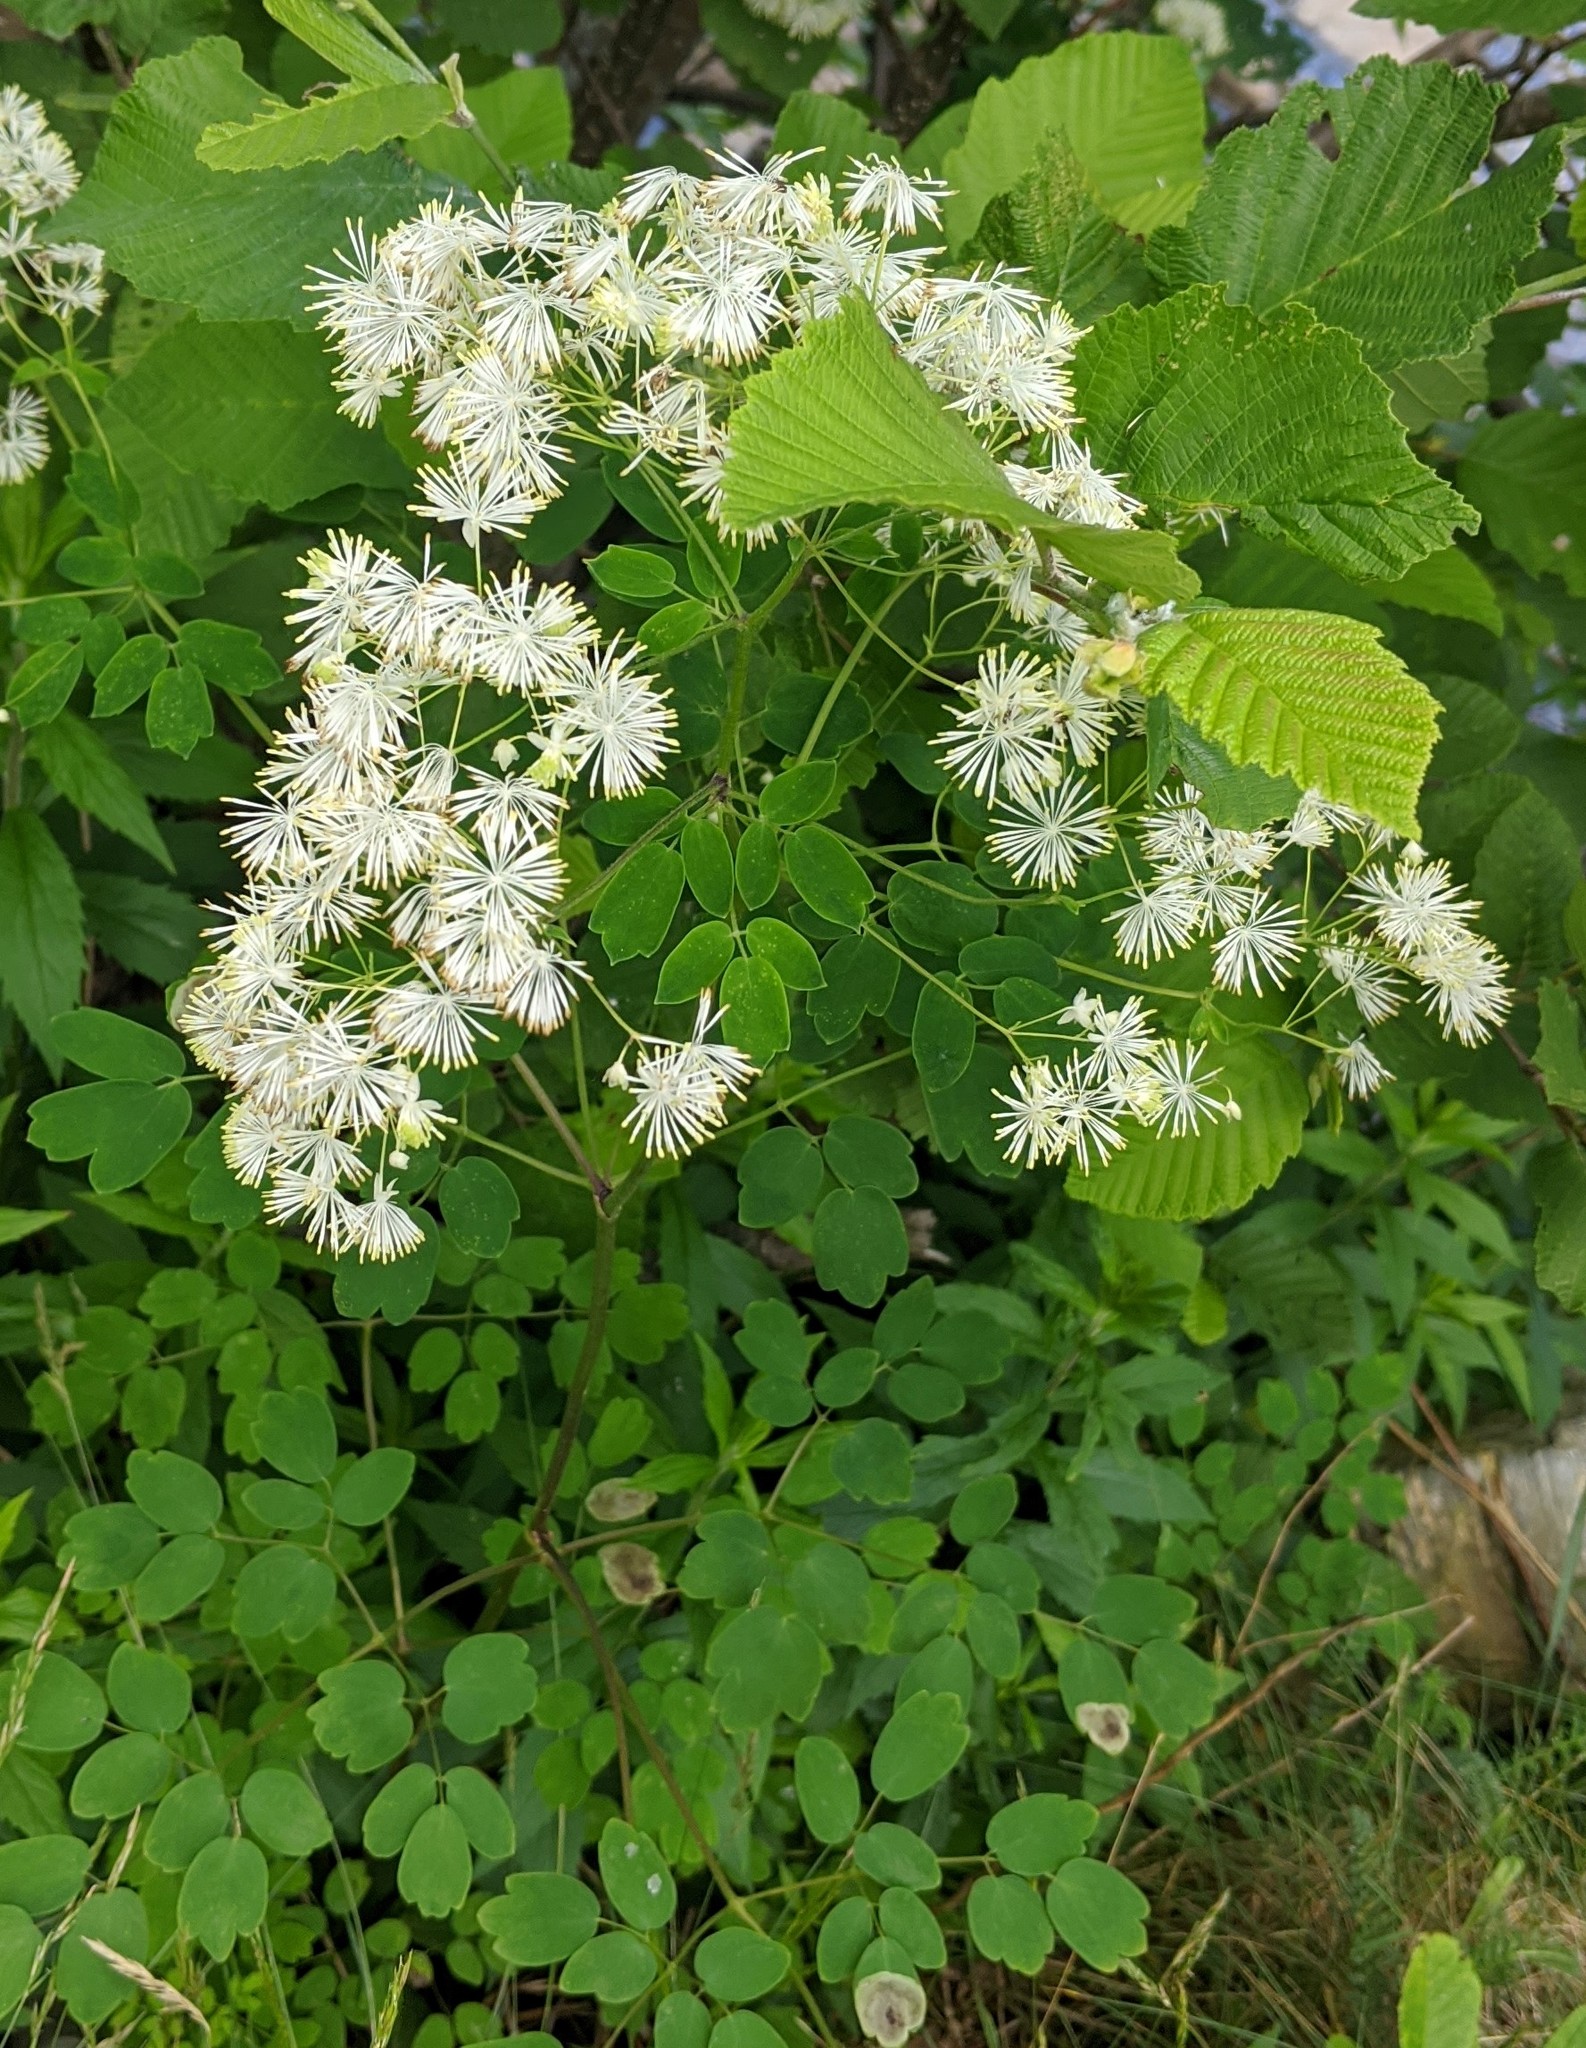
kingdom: Plantae
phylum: Tracheophyta
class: Magnoliopsida
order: Ranunculales
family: Ranunculaceae
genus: Thalictrum
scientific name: Thalictrum pubescens
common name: King-of-the-meadow
